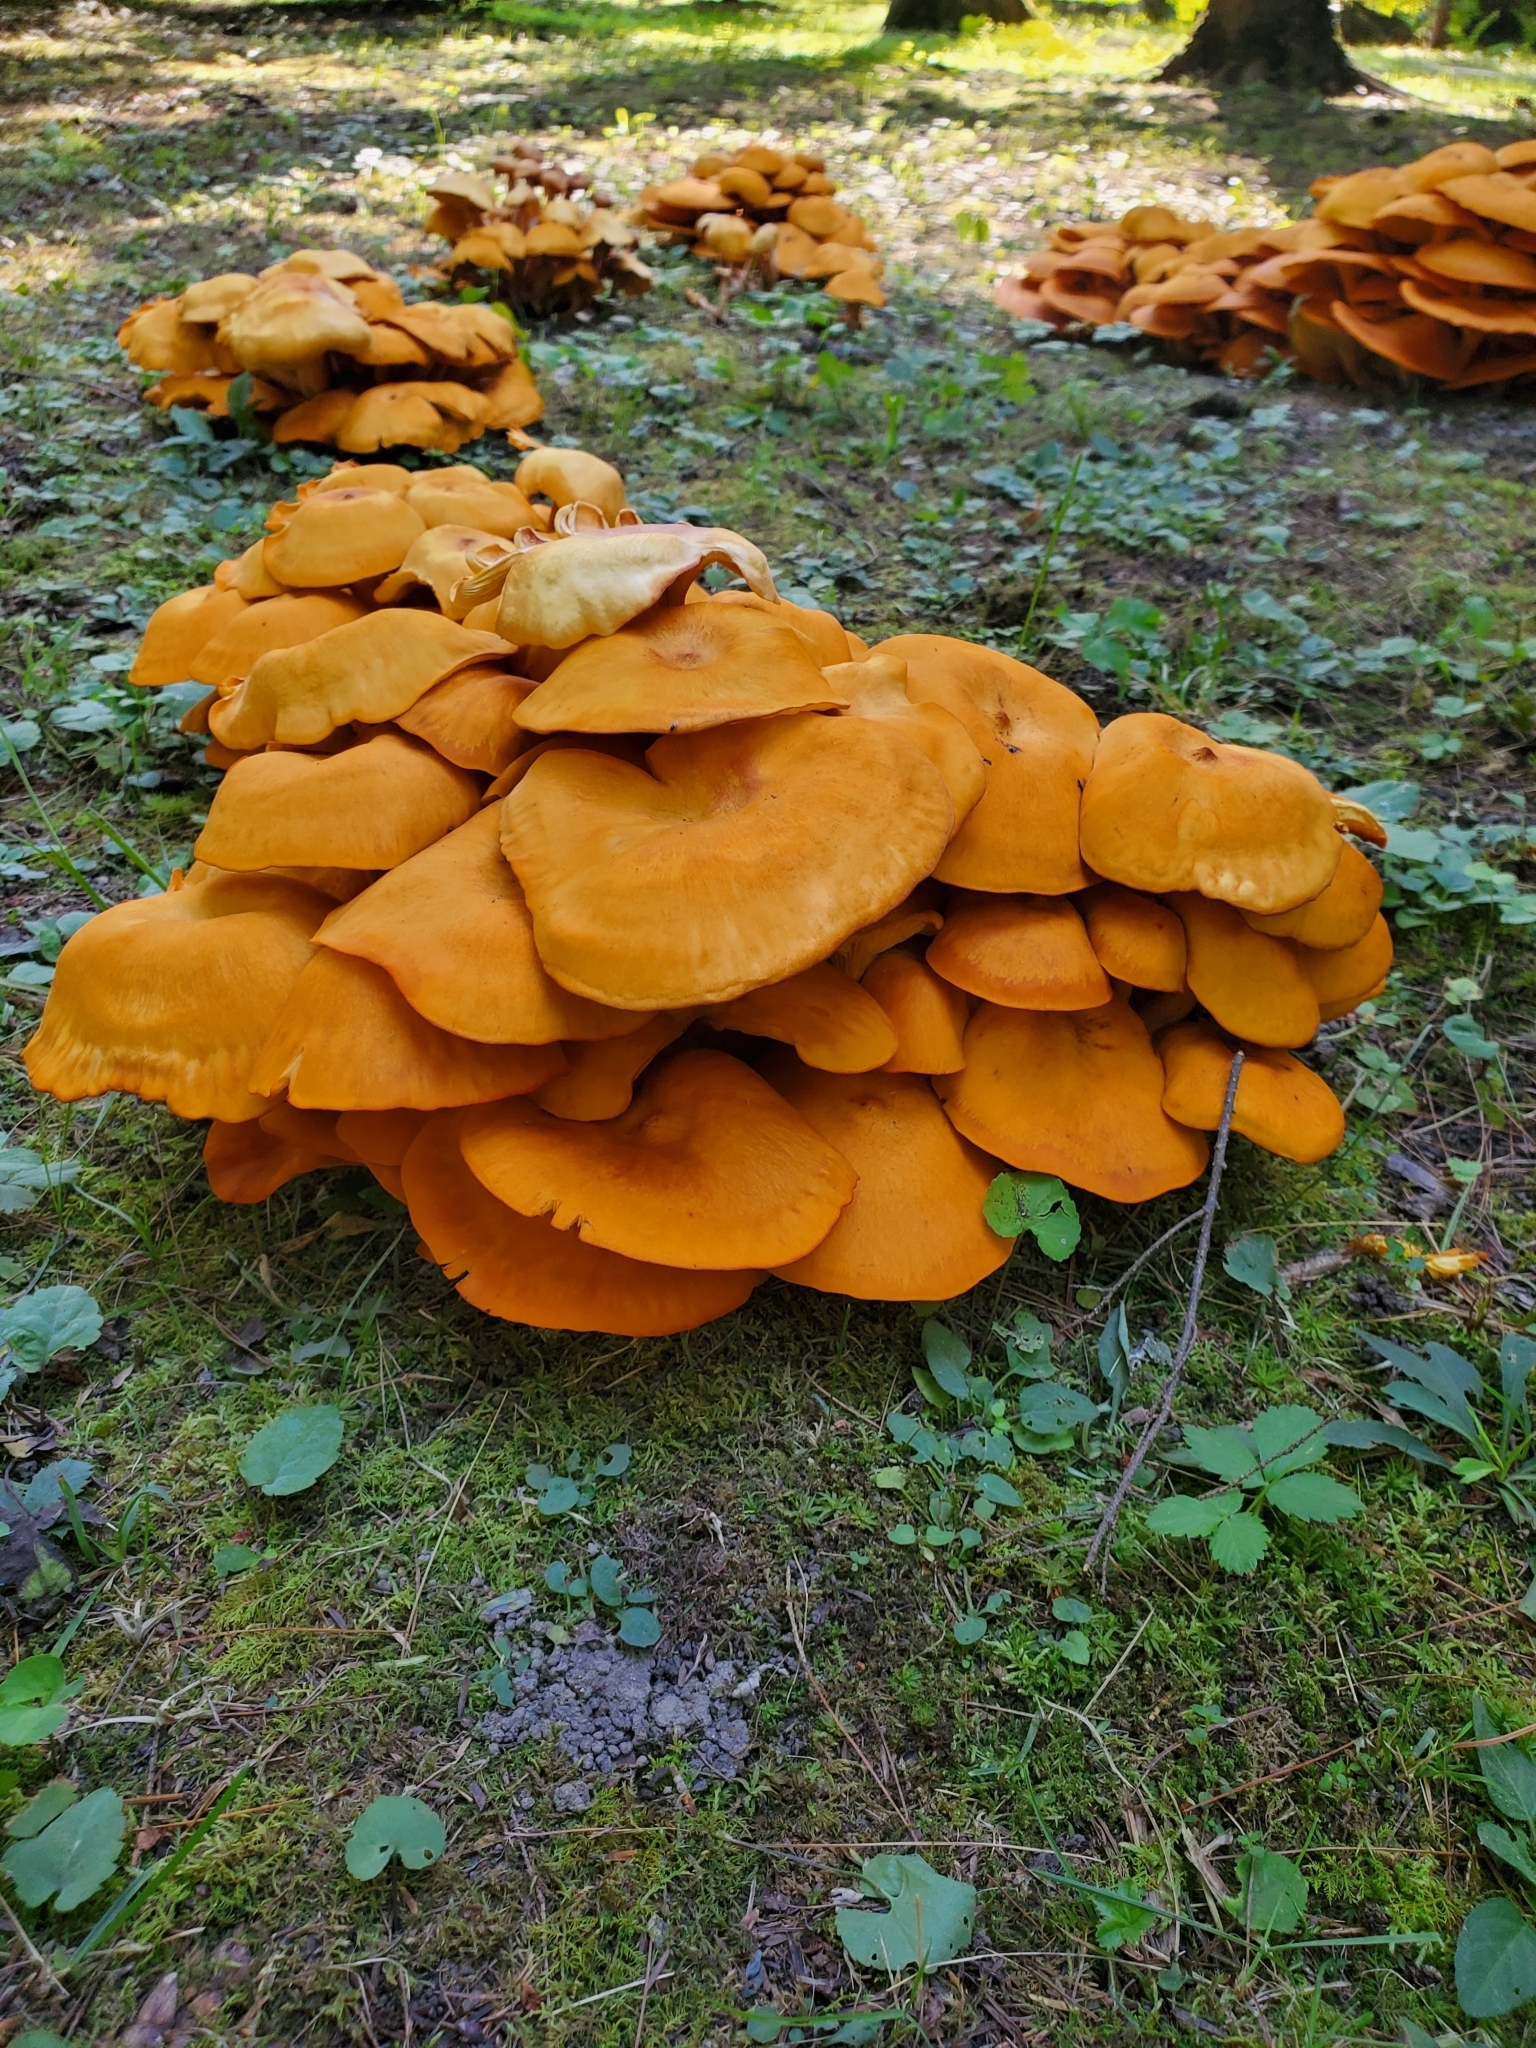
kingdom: Fungi
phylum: Basidiomycota
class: Agaricomycetes
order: Agaricales
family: Omphalotaceae
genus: Omphalotus
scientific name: Omphalotus illudens
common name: Jack o lantern
